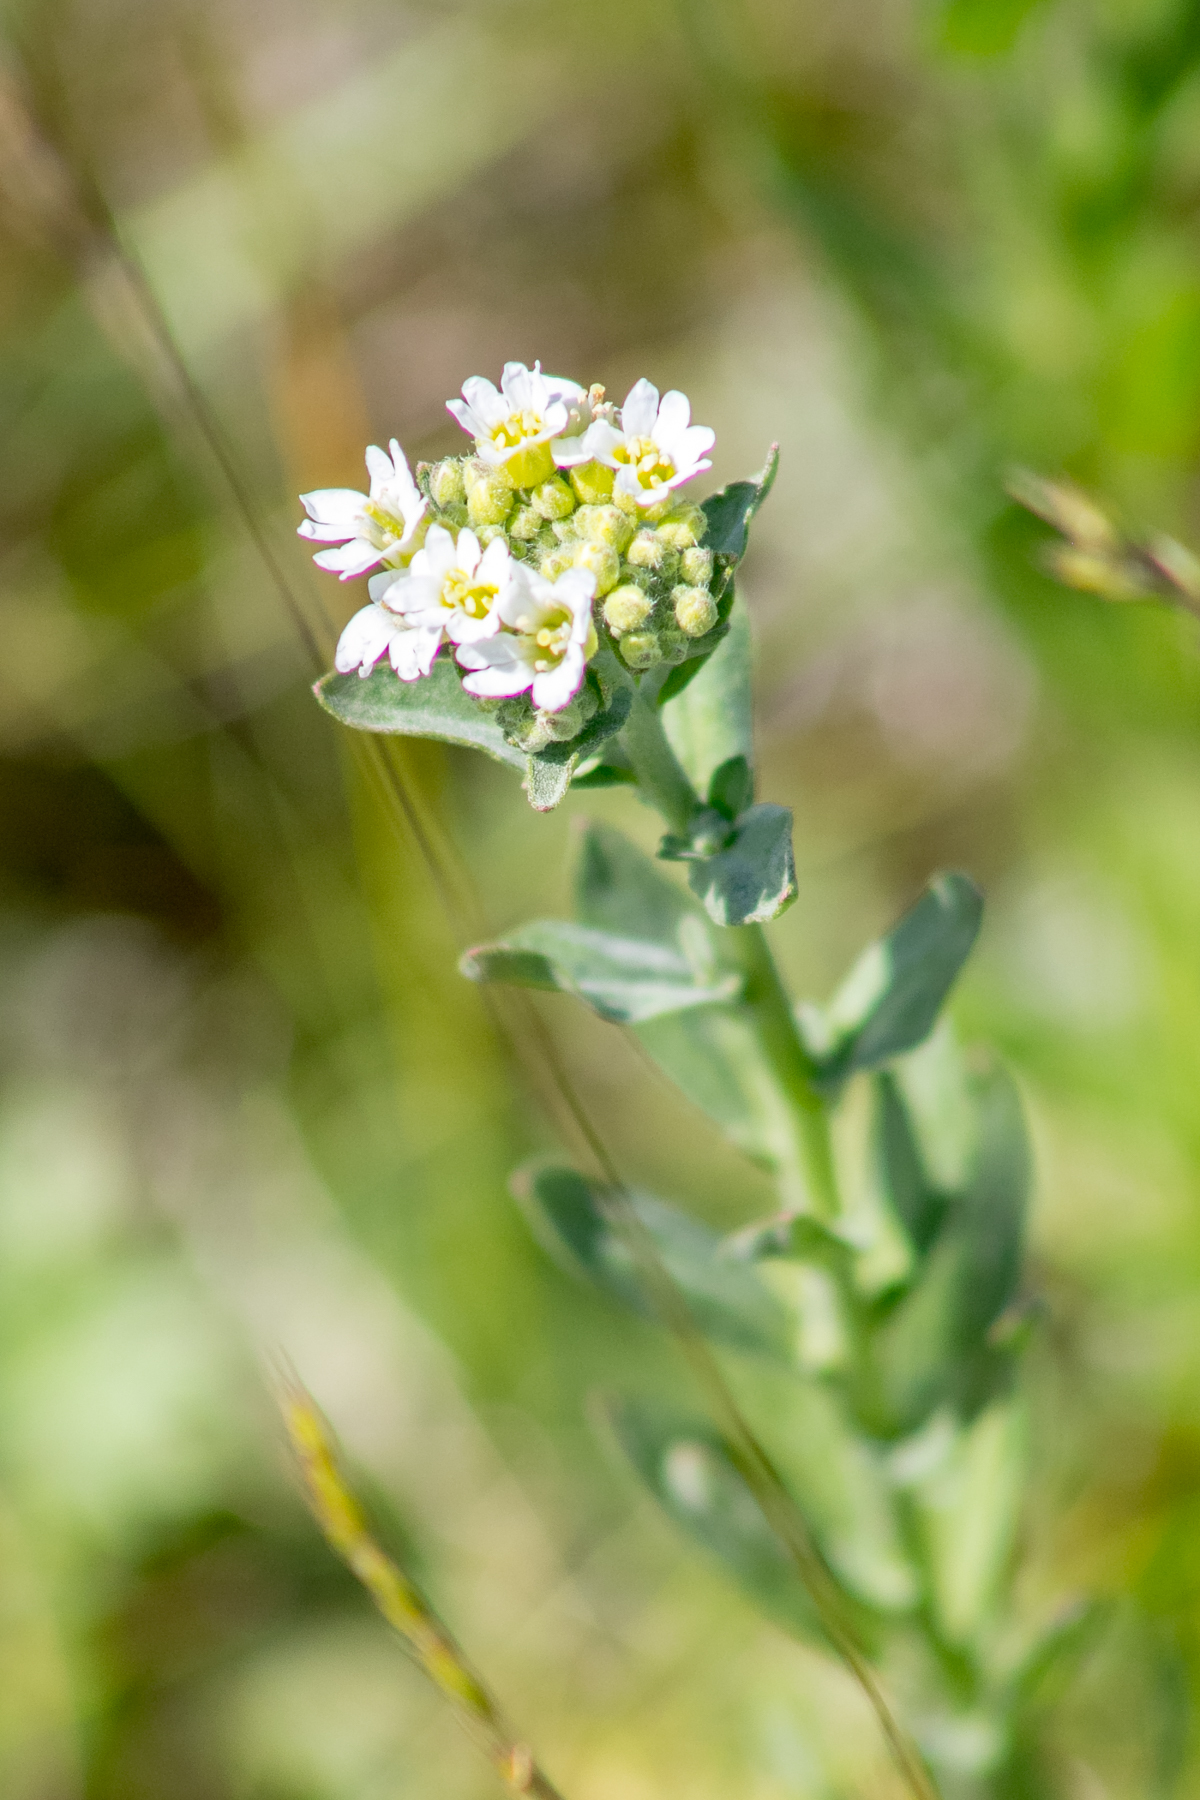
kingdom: Plantae
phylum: Tracheophyta
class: Magnoliopsida
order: Brassicales
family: Brassicaceae
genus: Berteroa
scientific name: Berteroa incana
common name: Hoary alison
